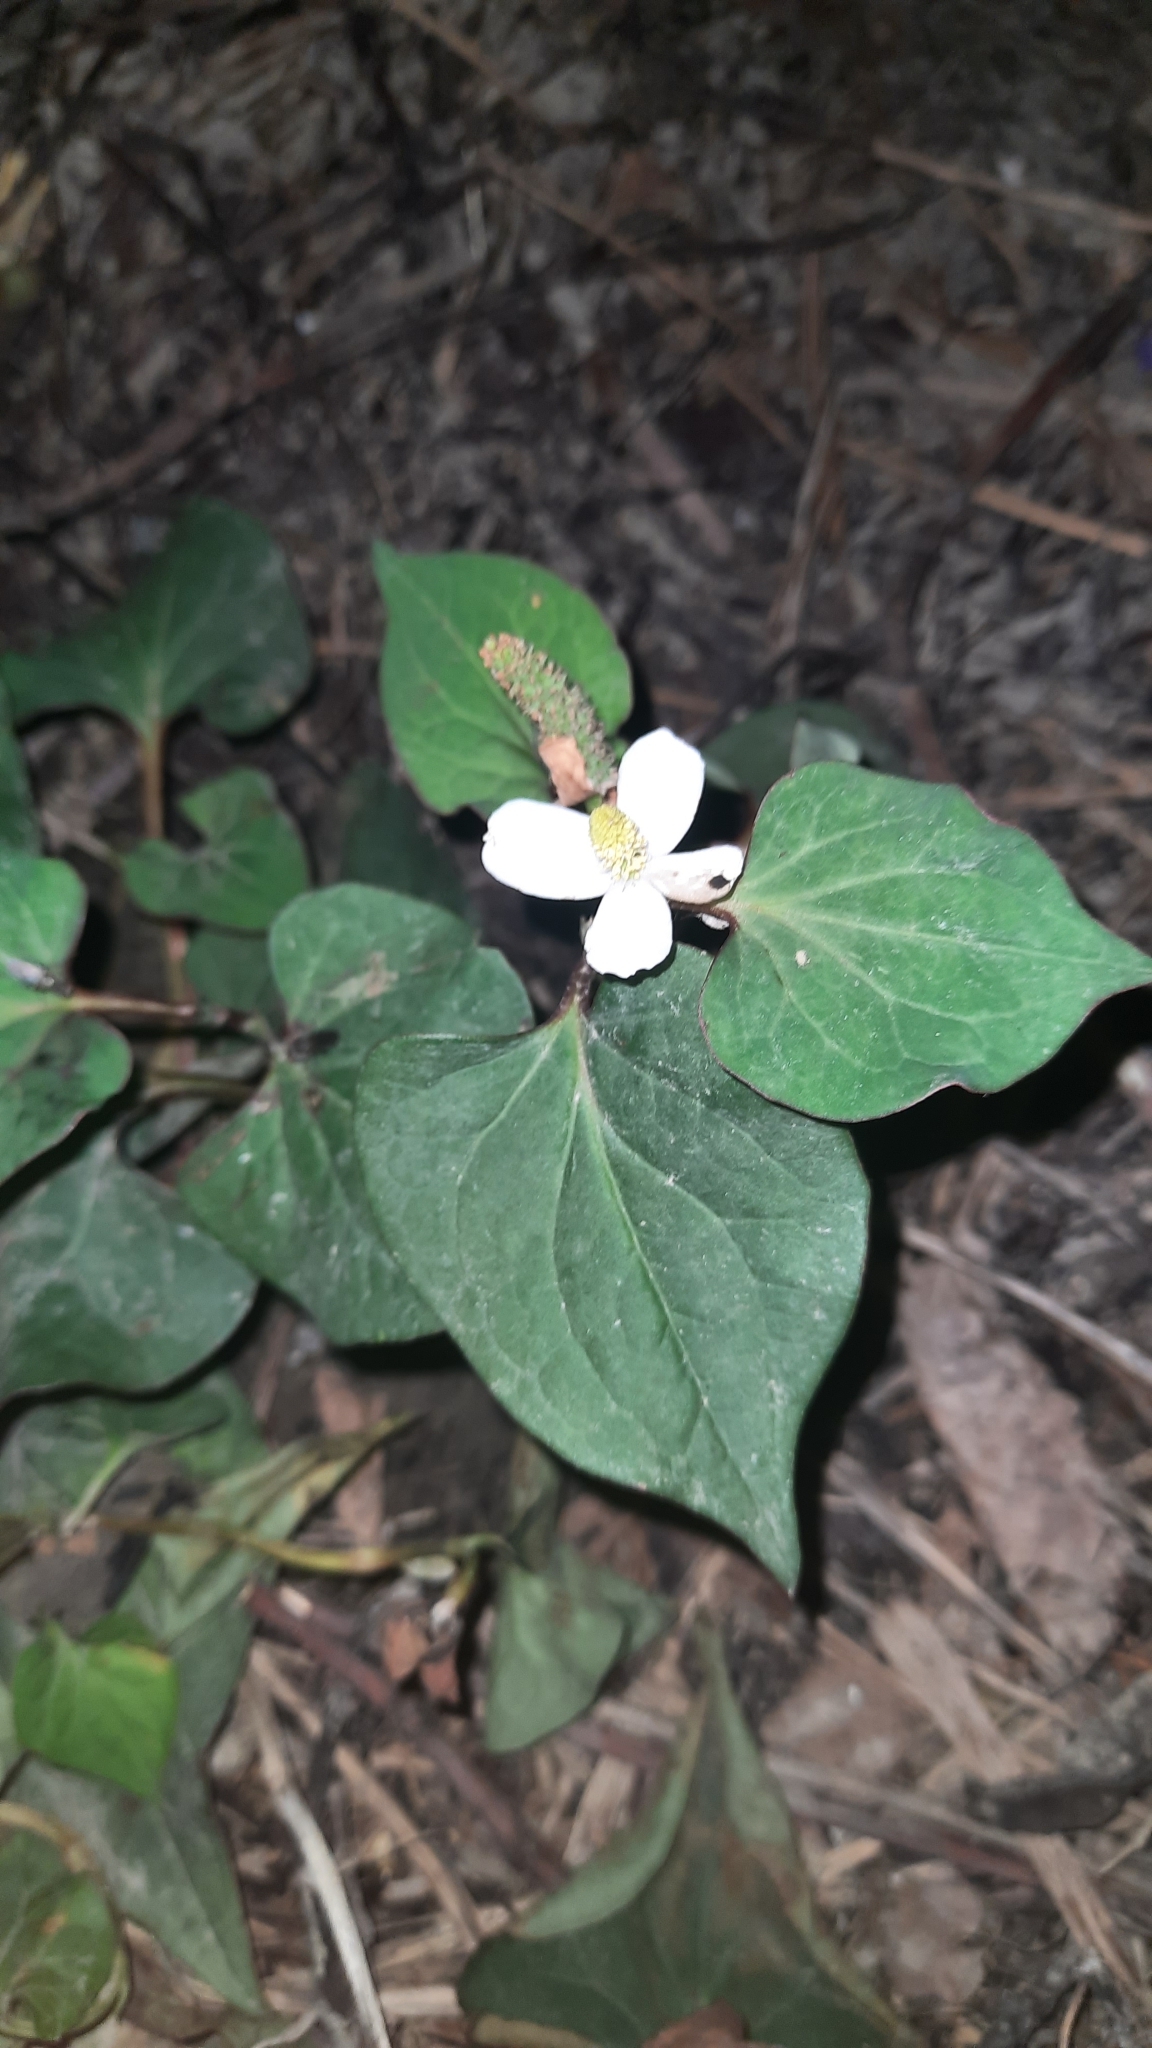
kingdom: Plantae
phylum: Tracheophyta
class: Magnoliopsida
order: Piperales
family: Saururaceae
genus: Houttuynia
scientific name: Houttuynia cordata
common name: Chameleon
